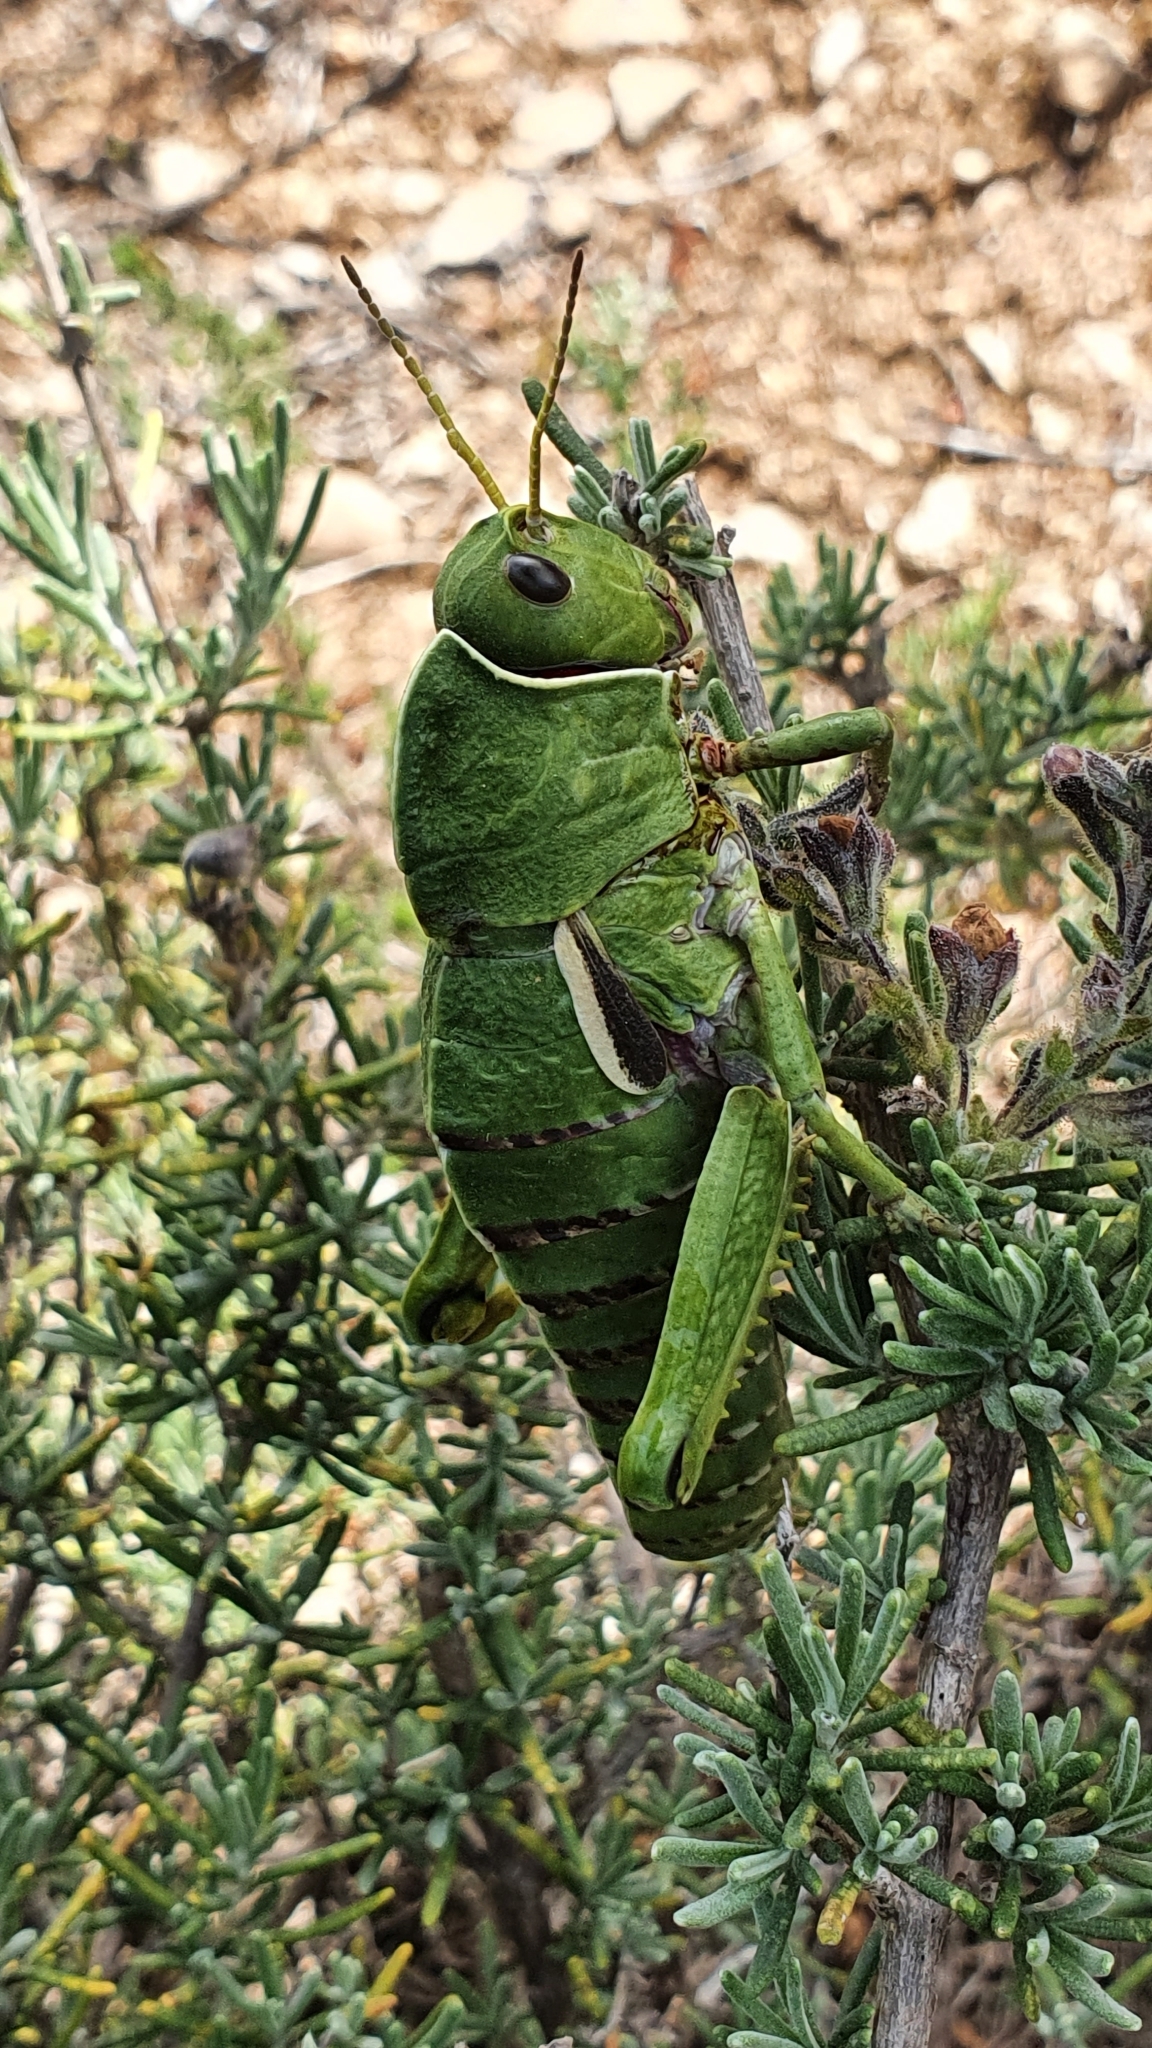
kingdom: Animalia
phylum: Arthropoda
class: Insecta
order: Orthoptera
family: Pamphagidae
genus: Pamphagus
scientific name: Pamphagus milevitanus
